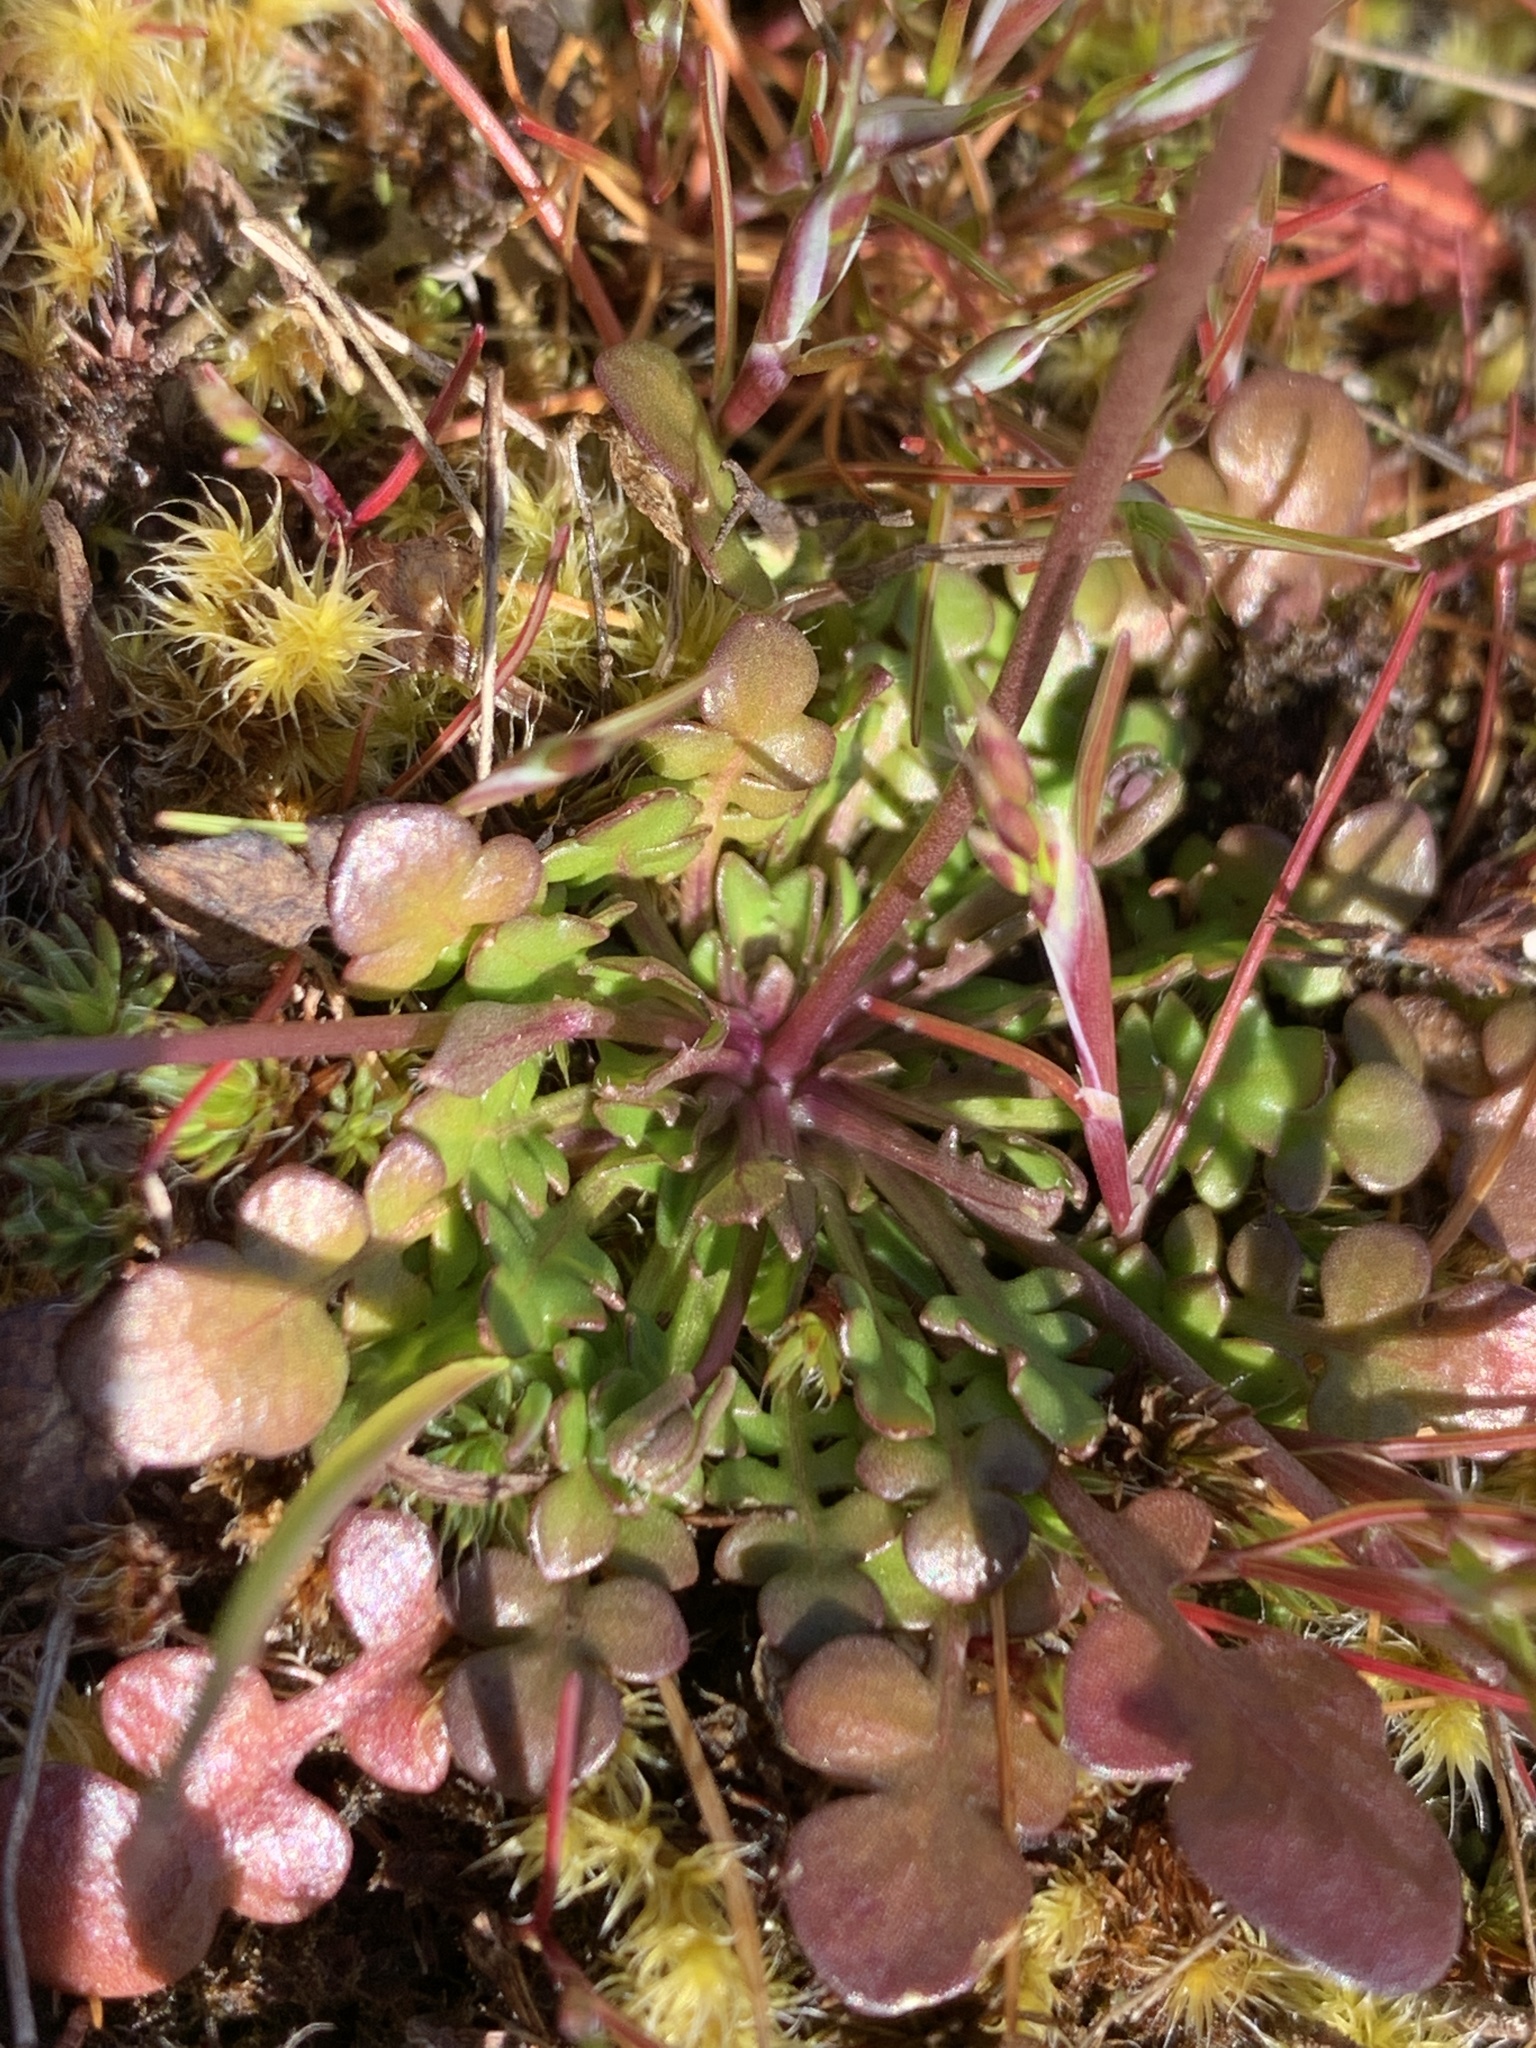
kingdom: Plantae
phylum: Tracheophyta
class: Magnoliopsida
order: Brassicales
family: Brassicaceae
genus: Teesdalia
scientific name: Teesdalia nudicaulis
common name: Shepherd's cress
